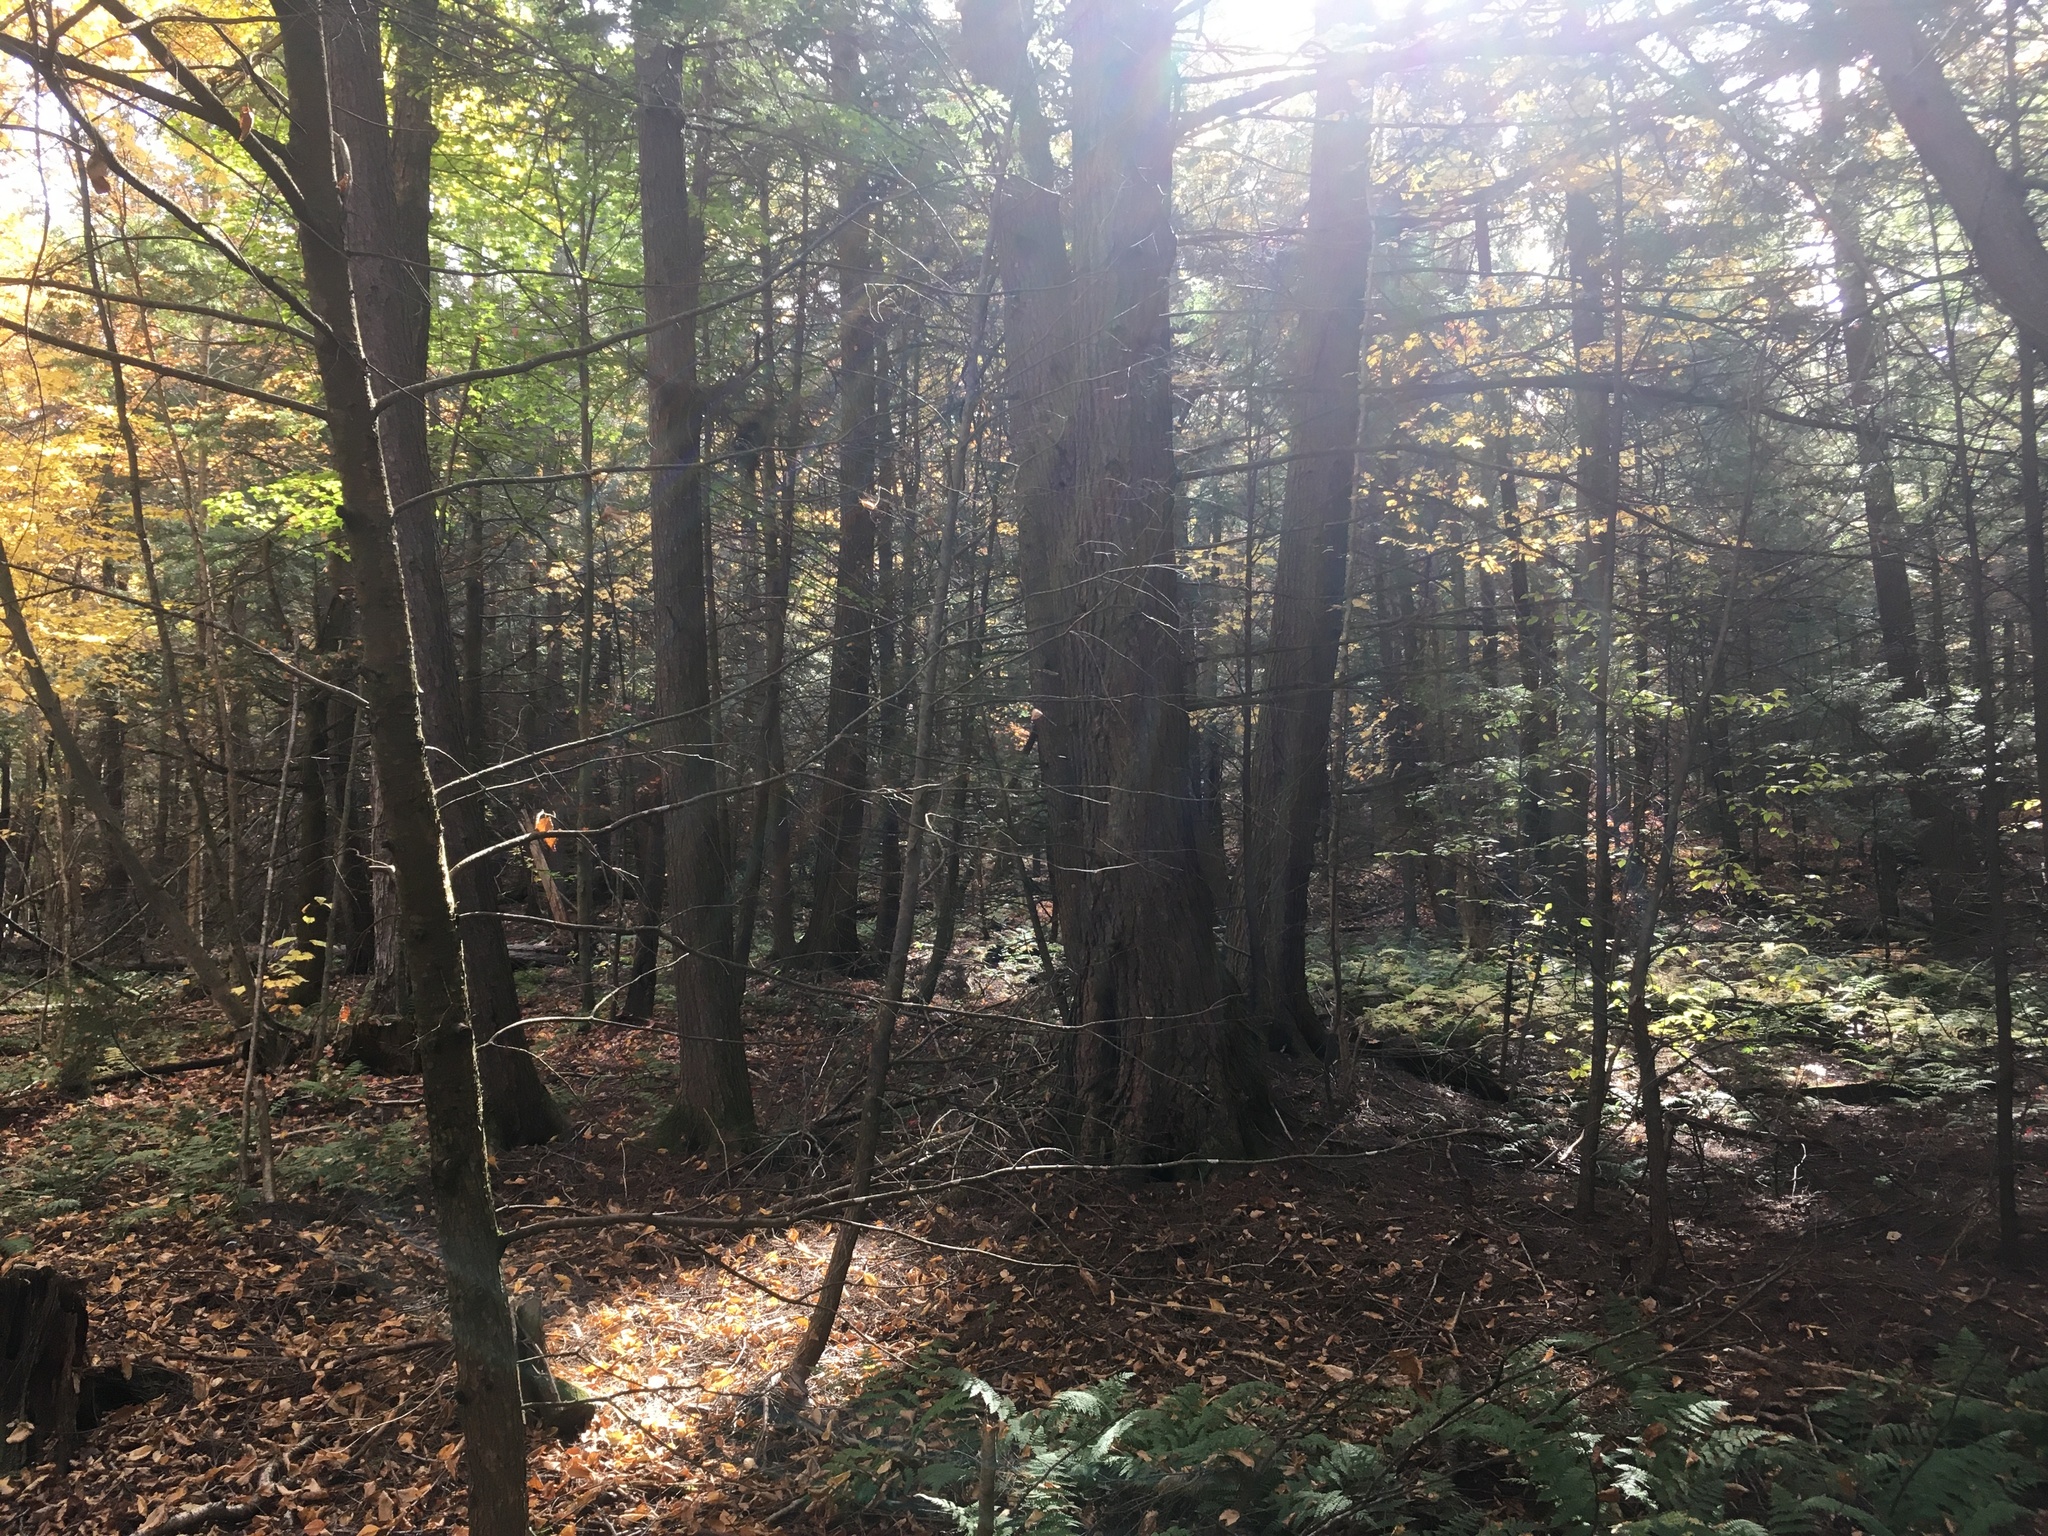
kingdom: Plantae
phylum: Tracheophyta
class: Pinopsida
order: Pinales
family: Pinaceae
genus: Tsuga
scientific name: Tsuga canadensis
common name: Eastern hemlock
